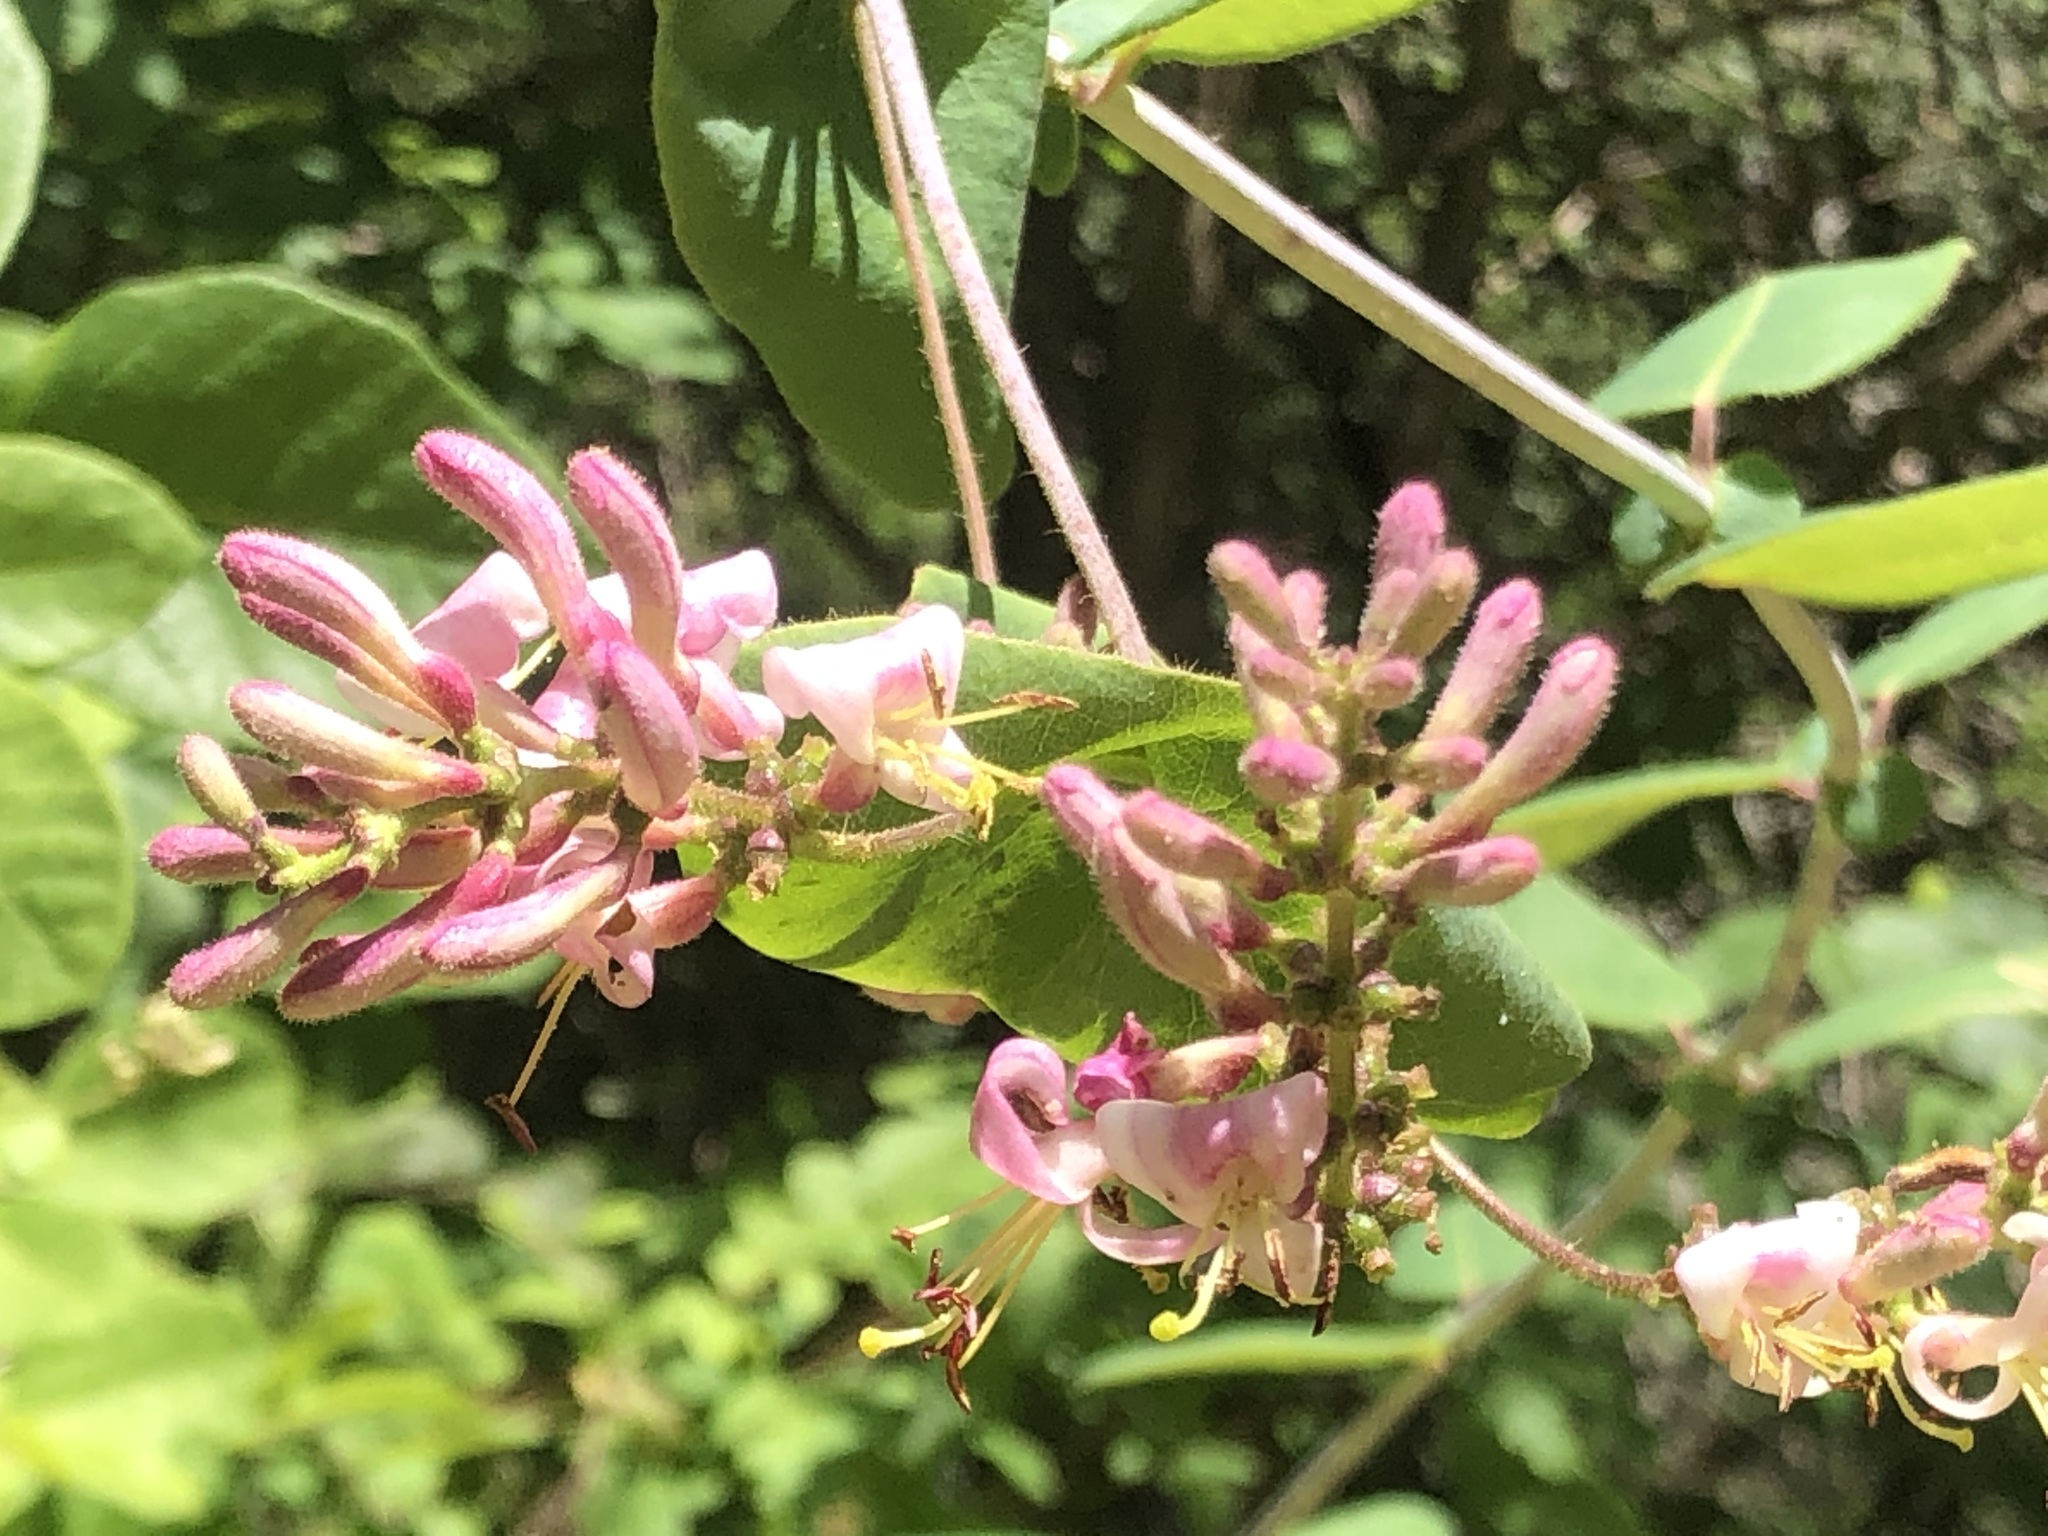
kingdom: Plantae
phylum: Tracheophyta
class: Magnoliopsida
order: Dipsacales
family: Caprifoliaceae
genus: Lonicera
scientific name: Lonicera hispidula
